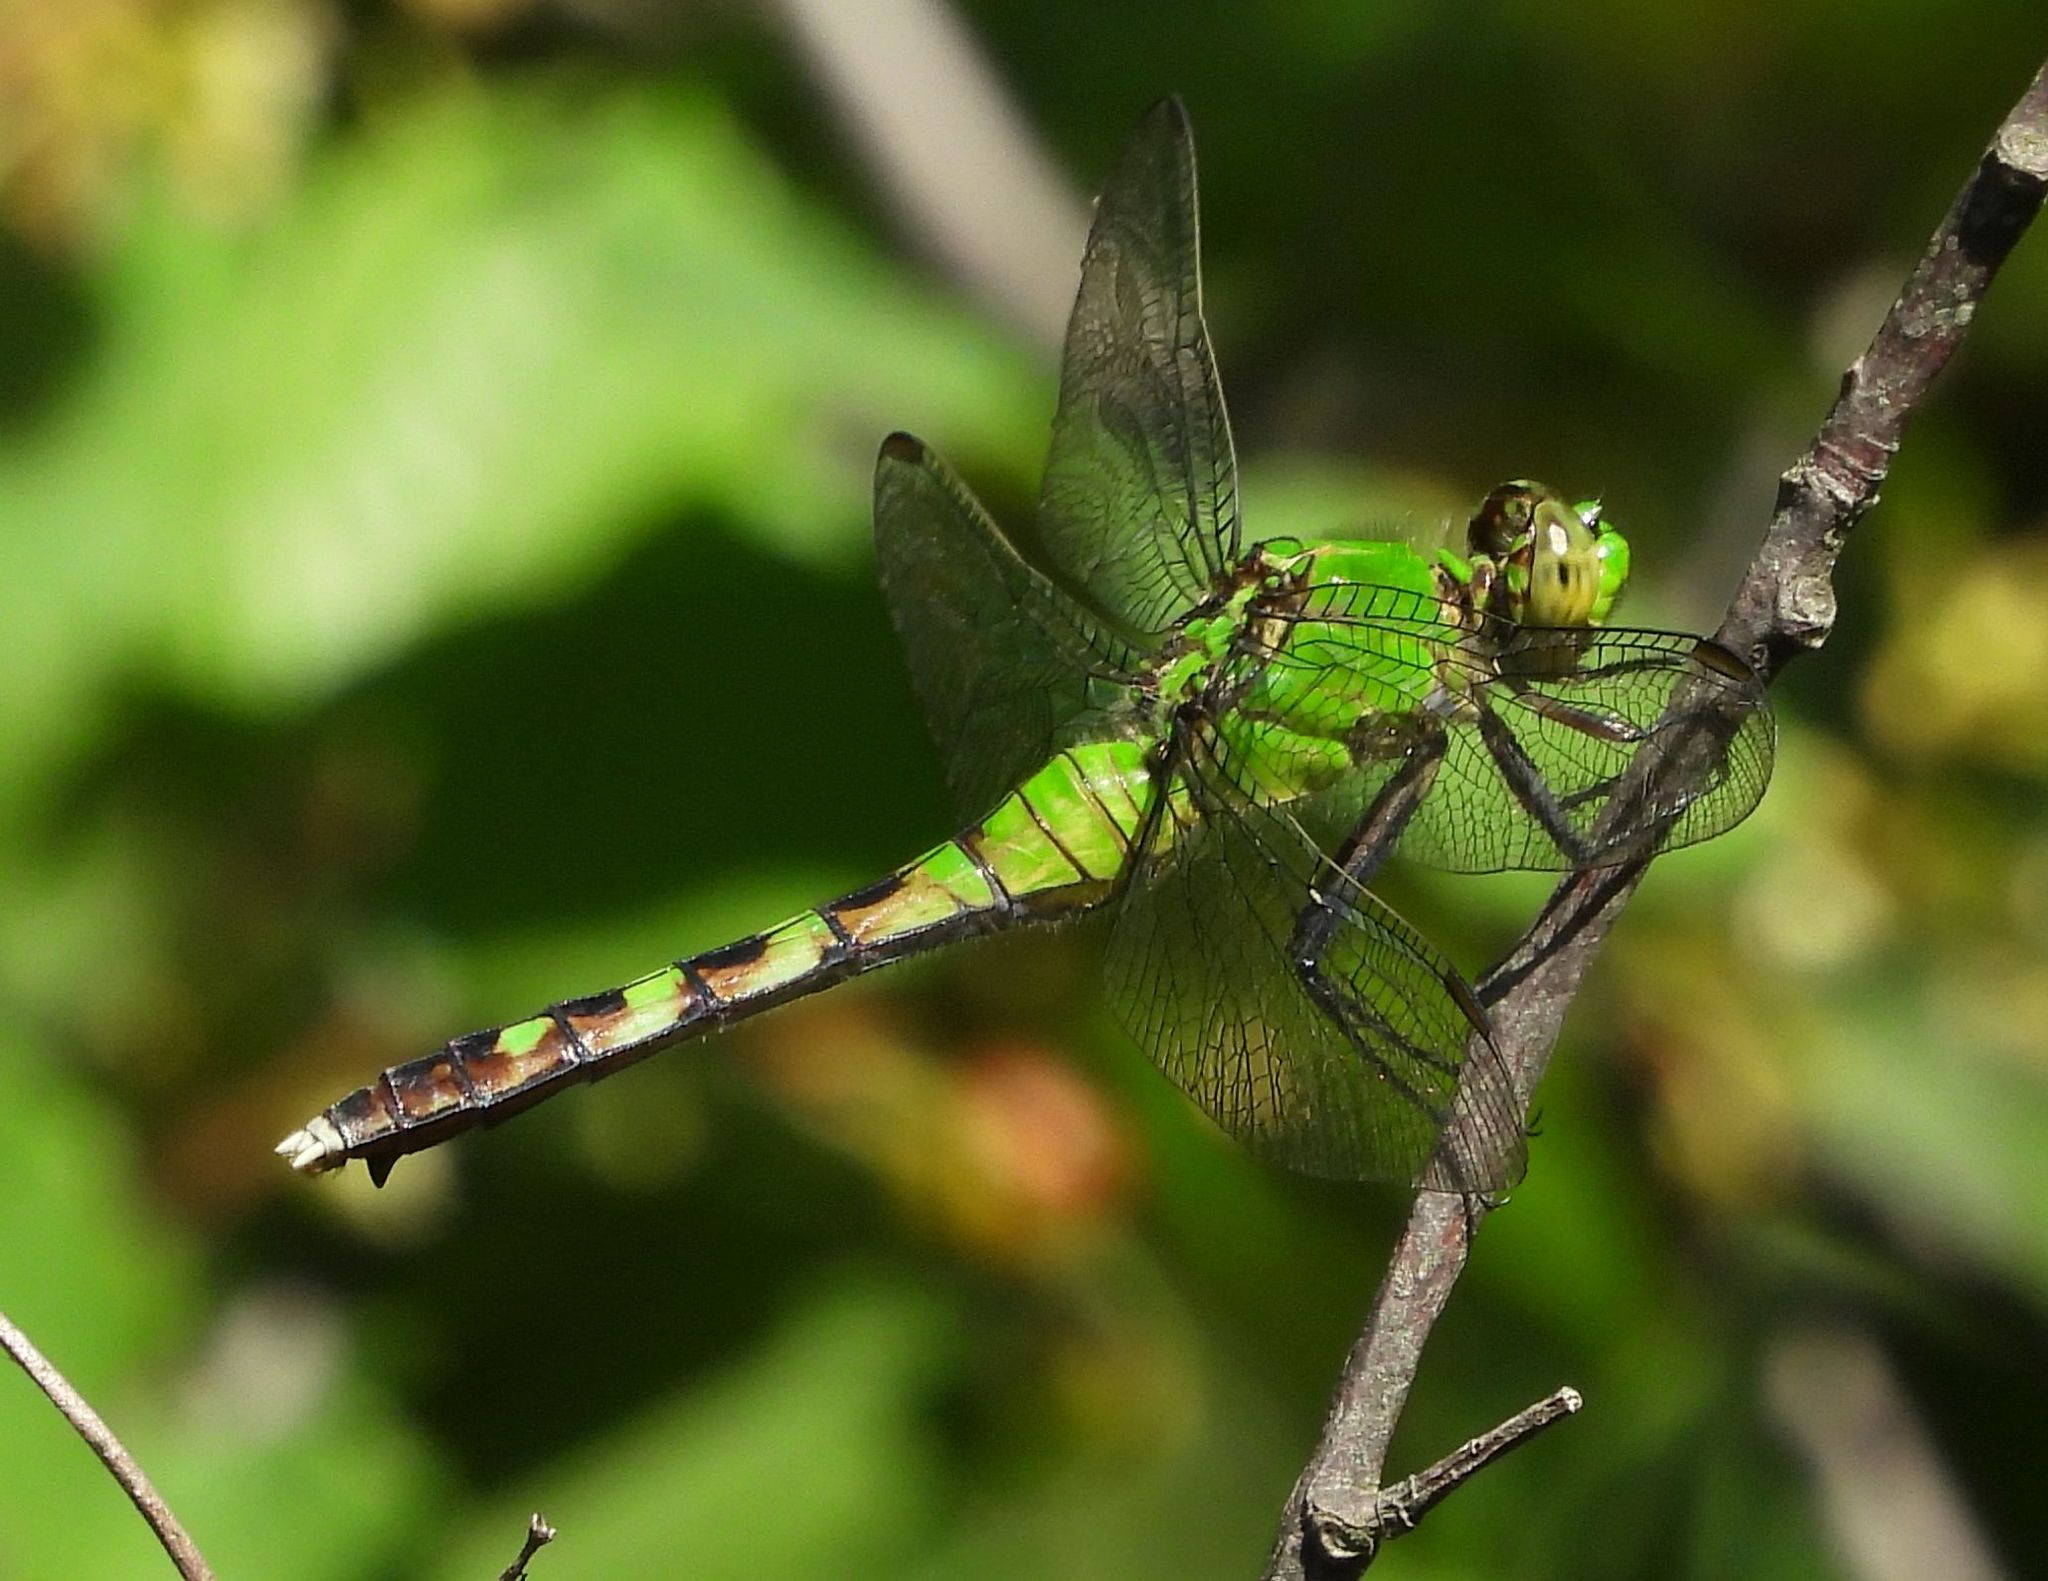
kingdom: Animalia
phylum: Arthropoda
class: Insecta
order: Odonata
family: Libellulidae
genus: Erythemis
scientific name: Erythemis simplicicollis
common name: Eastern pondhawk
